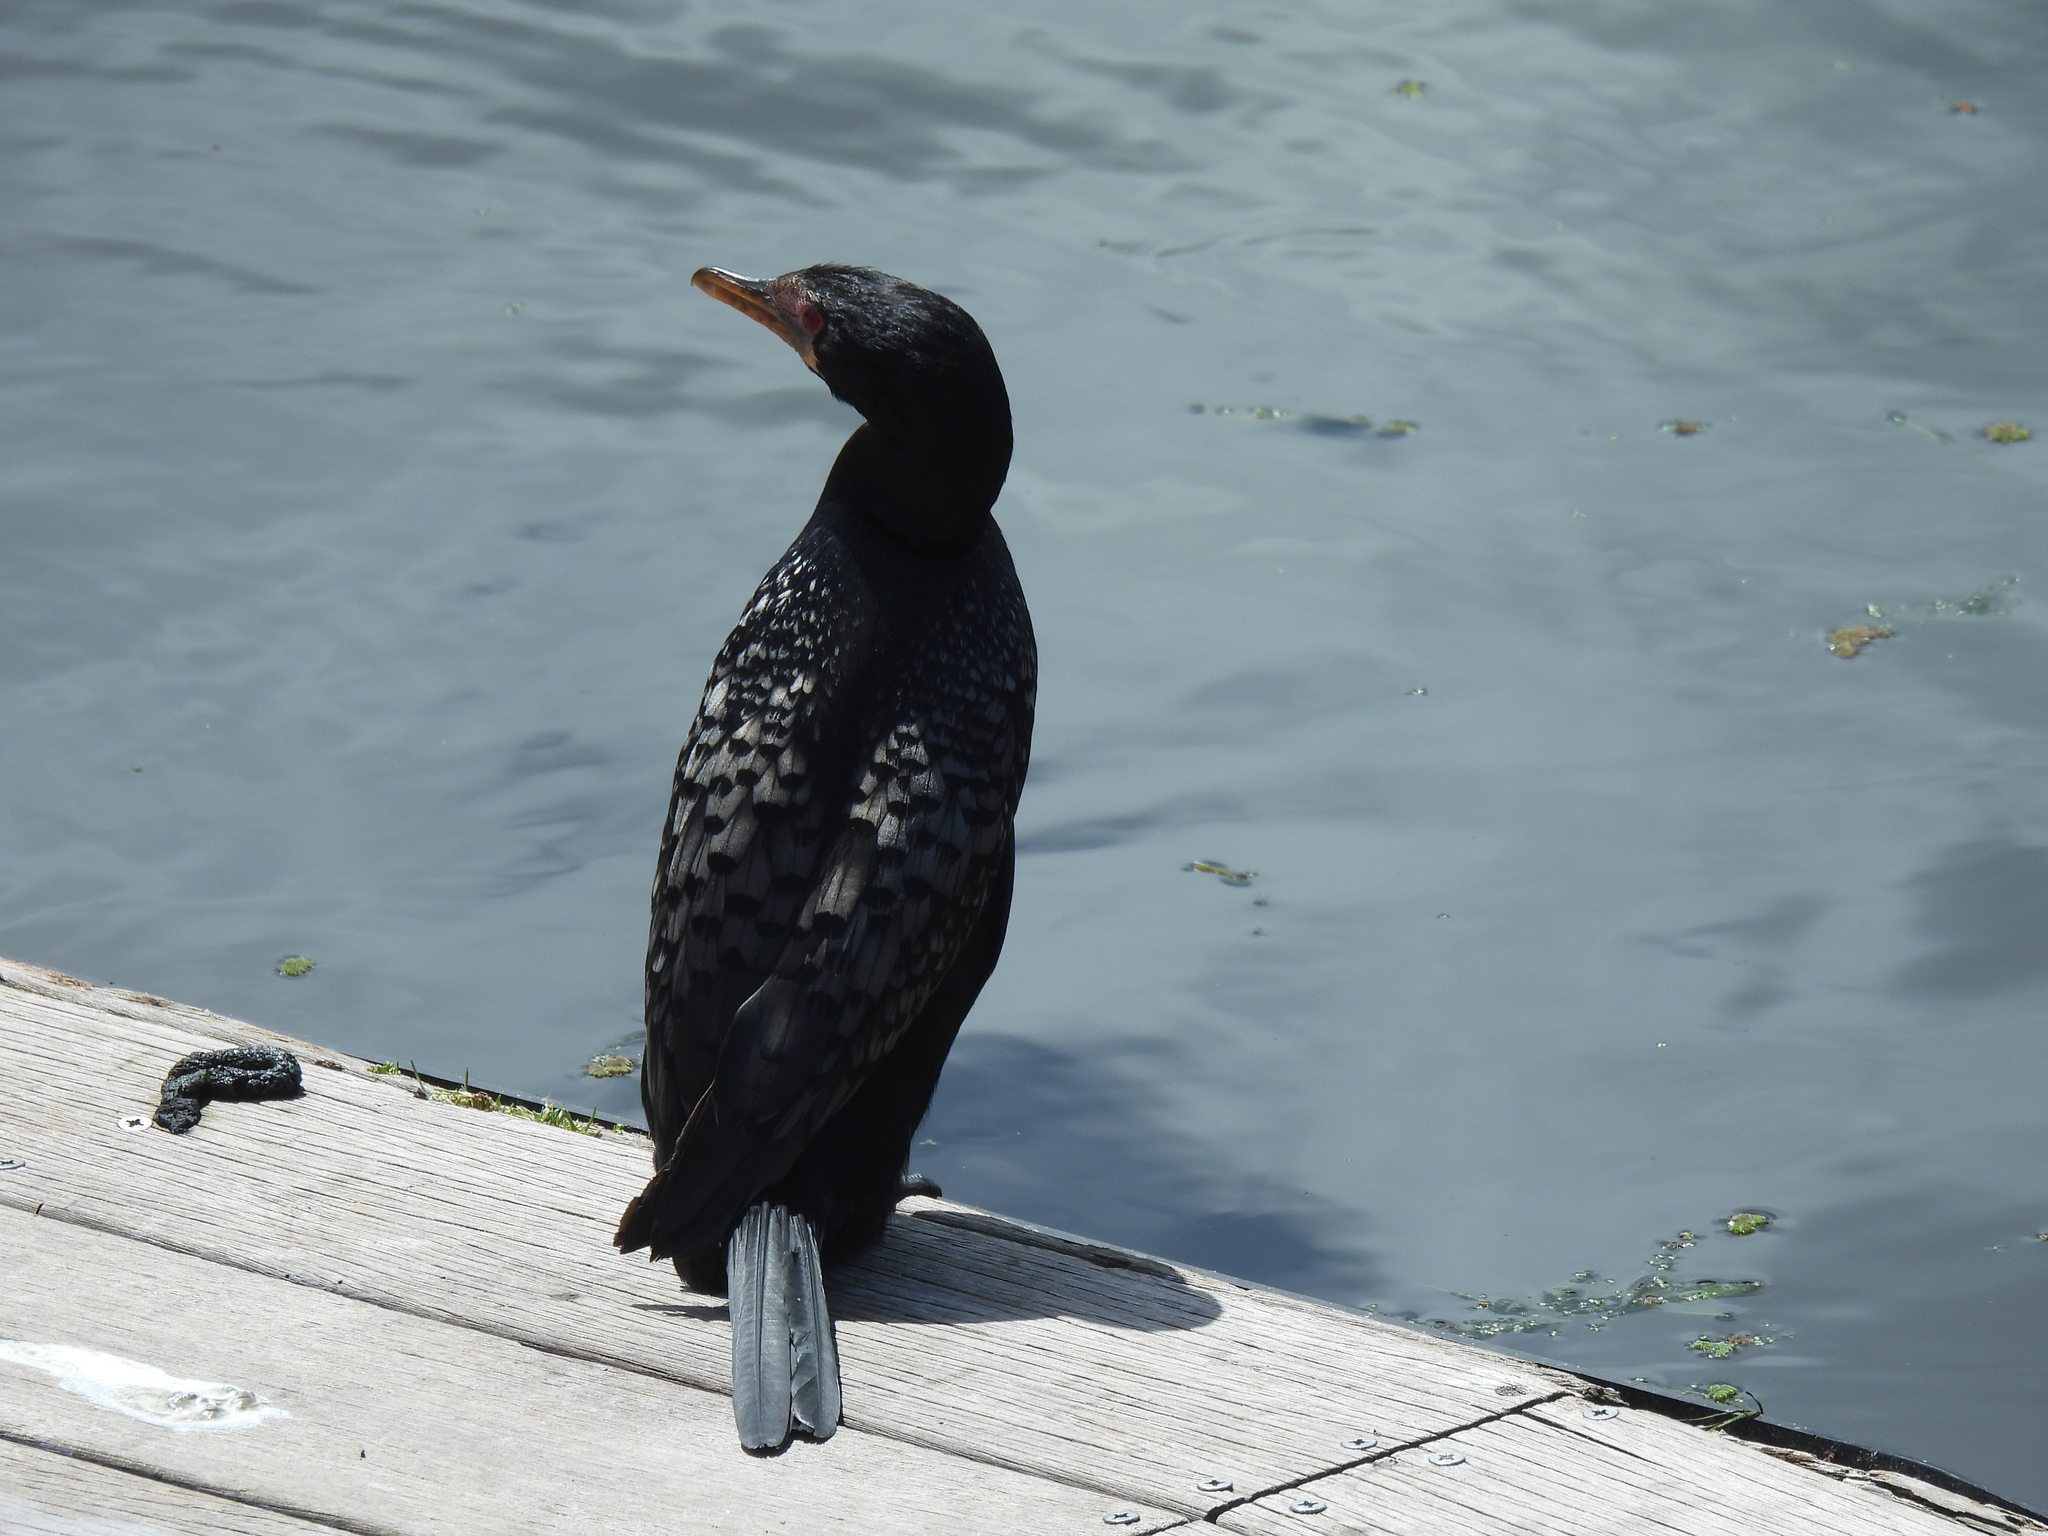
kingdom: Animalia
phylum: Chordata
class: Aves
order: Suliformes
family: Phalacrocoracidae
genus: Microcarbo
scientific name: Microcarbo africanus
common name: Long-tailed cormorant
